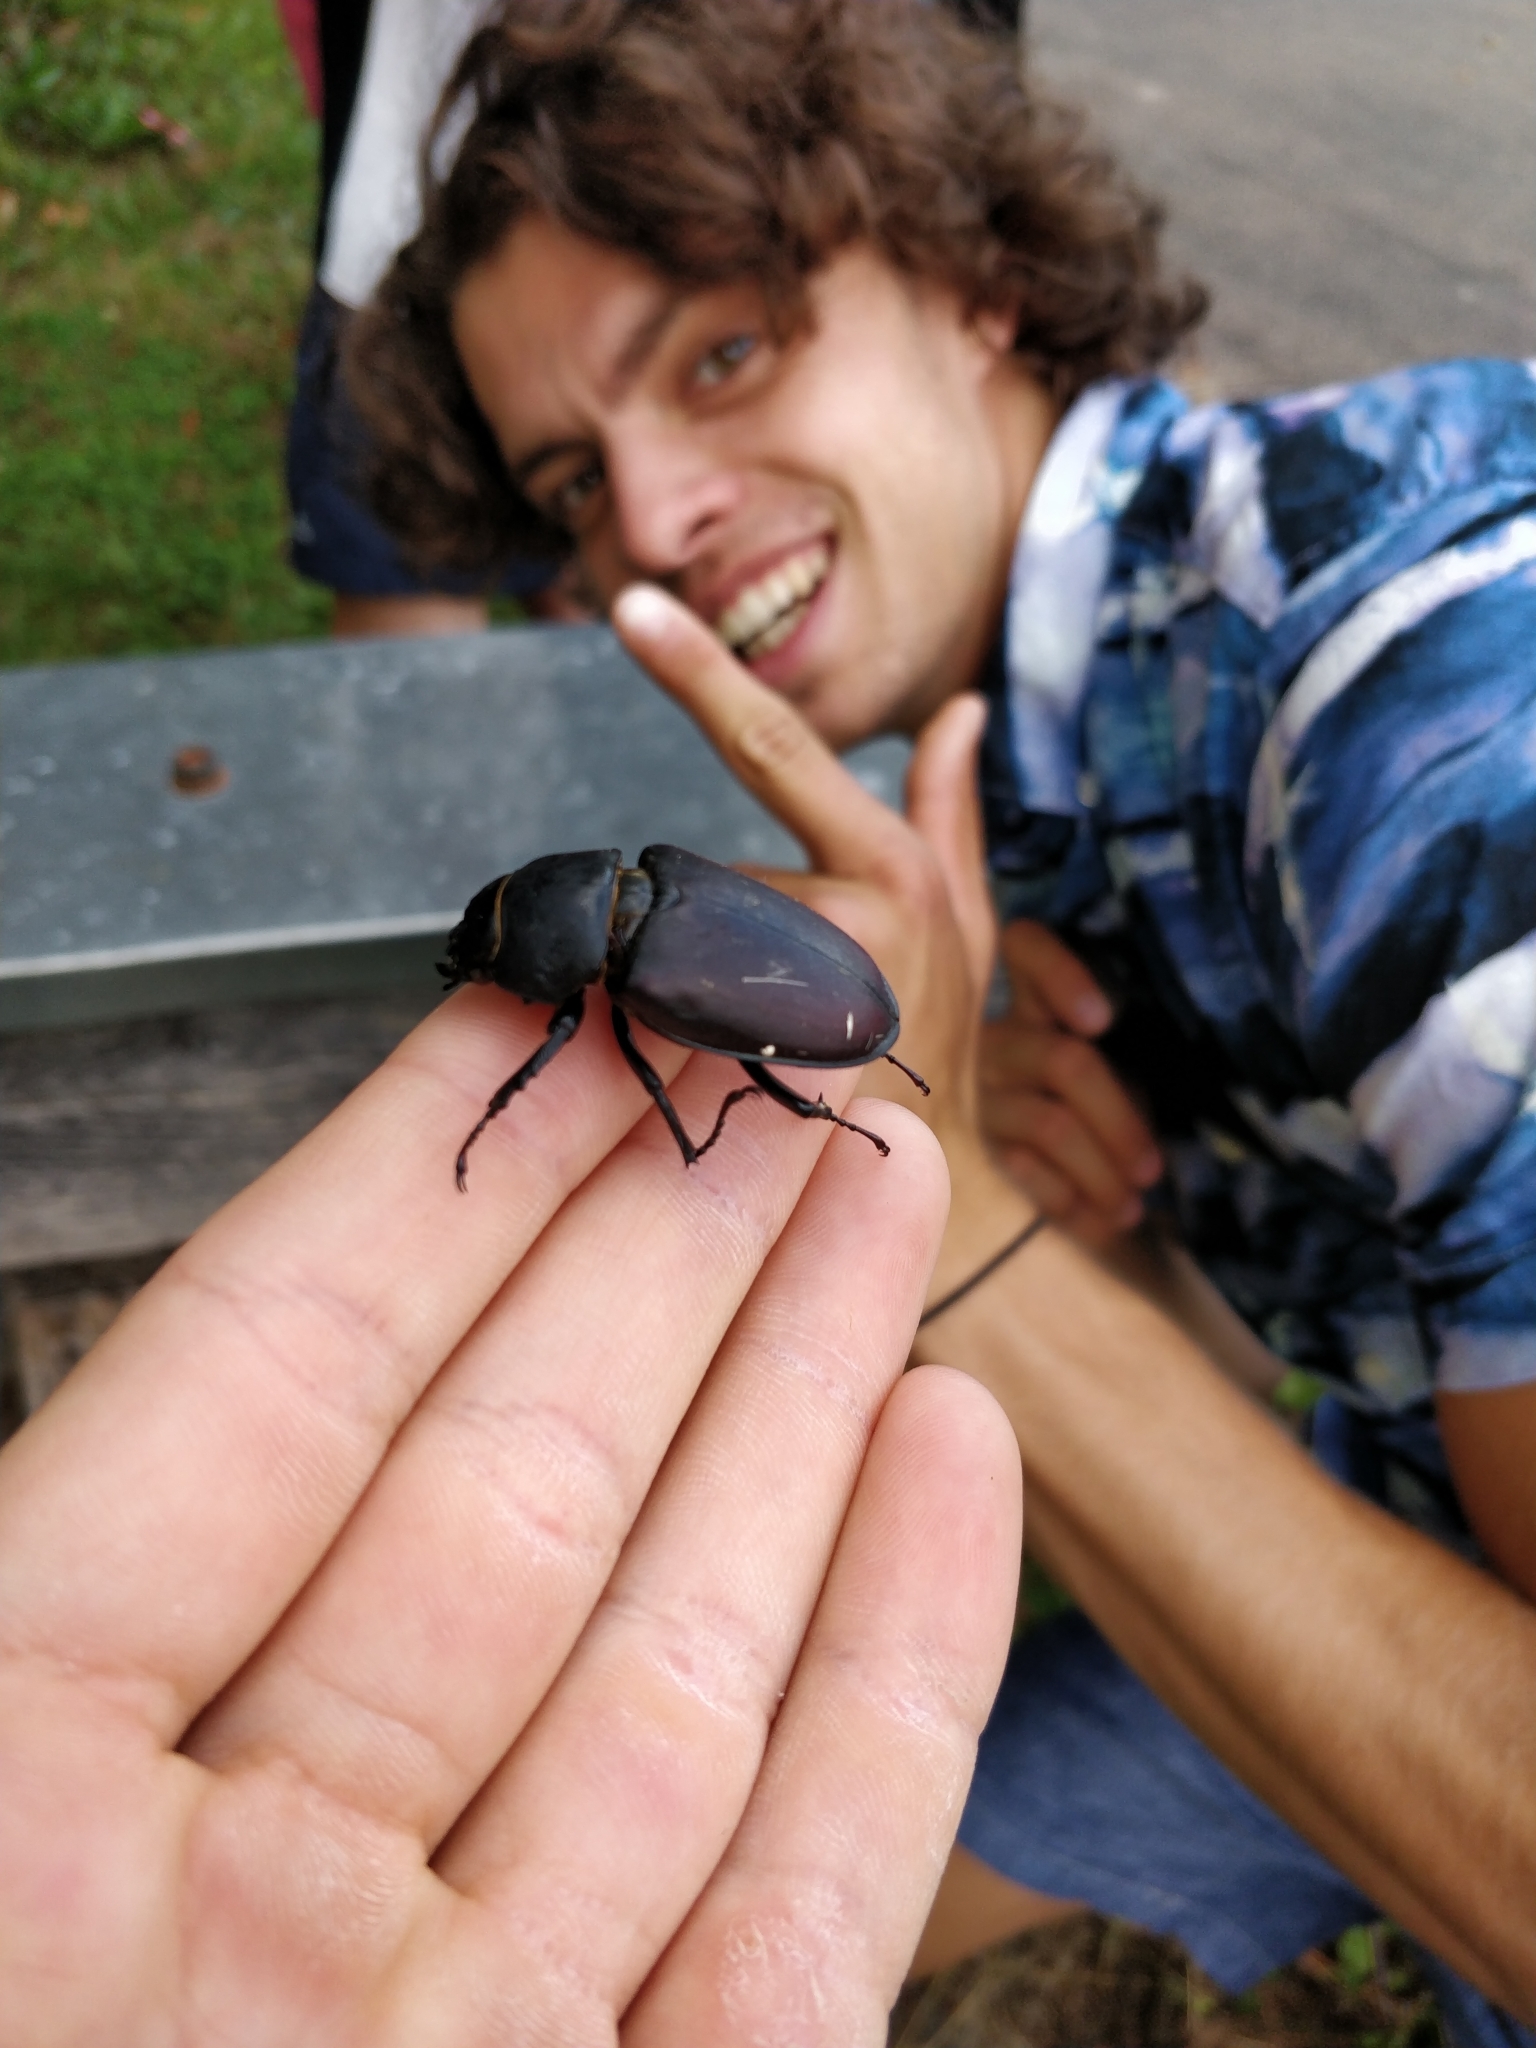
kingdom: Animalia
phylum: Arthropoda
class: Insecta
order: Coleoptera
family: Lucanidae
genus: Lucanus
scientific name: Lucanus cervus
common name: Stag beetle
